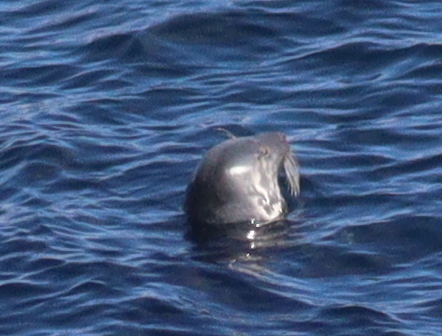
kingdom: Animalia
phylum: Chordata
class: Mammalia
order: Carnivora
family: Phocidae
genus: Halichoerus
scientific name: Halichoerus grypus
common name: Grey seal
